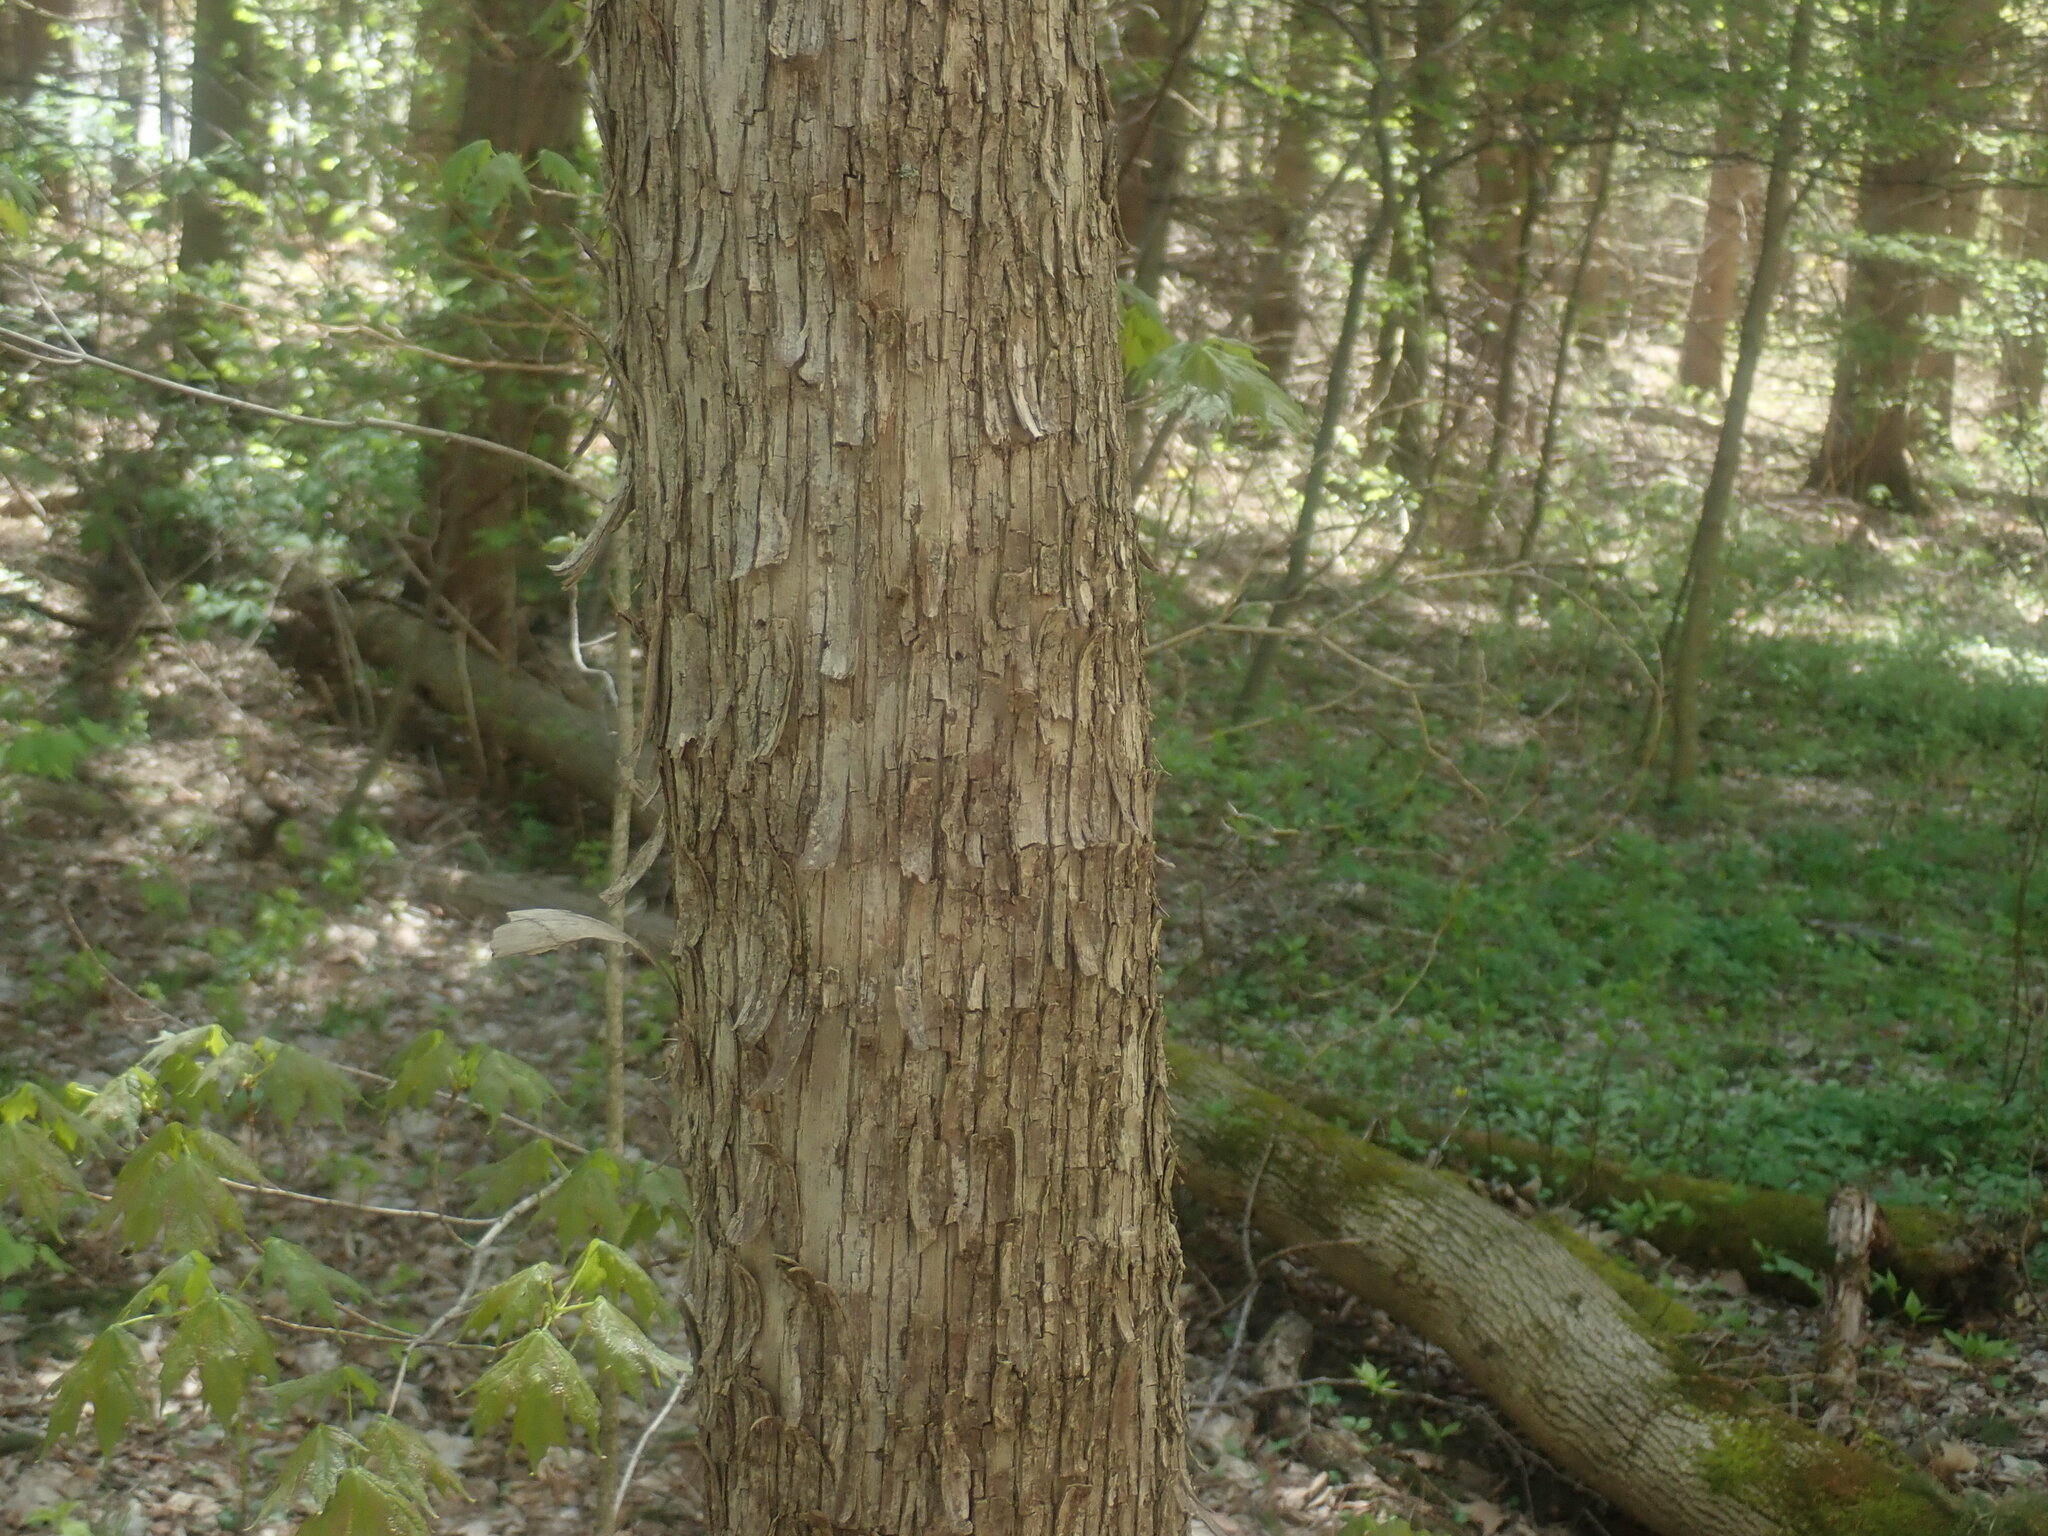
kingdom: Plantae
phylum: Tracheophyta
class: Magnoliopsida
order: Fagales
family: Betulaceae
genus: Ostrya
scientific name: Ostrya virginiana
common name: Ironwood
